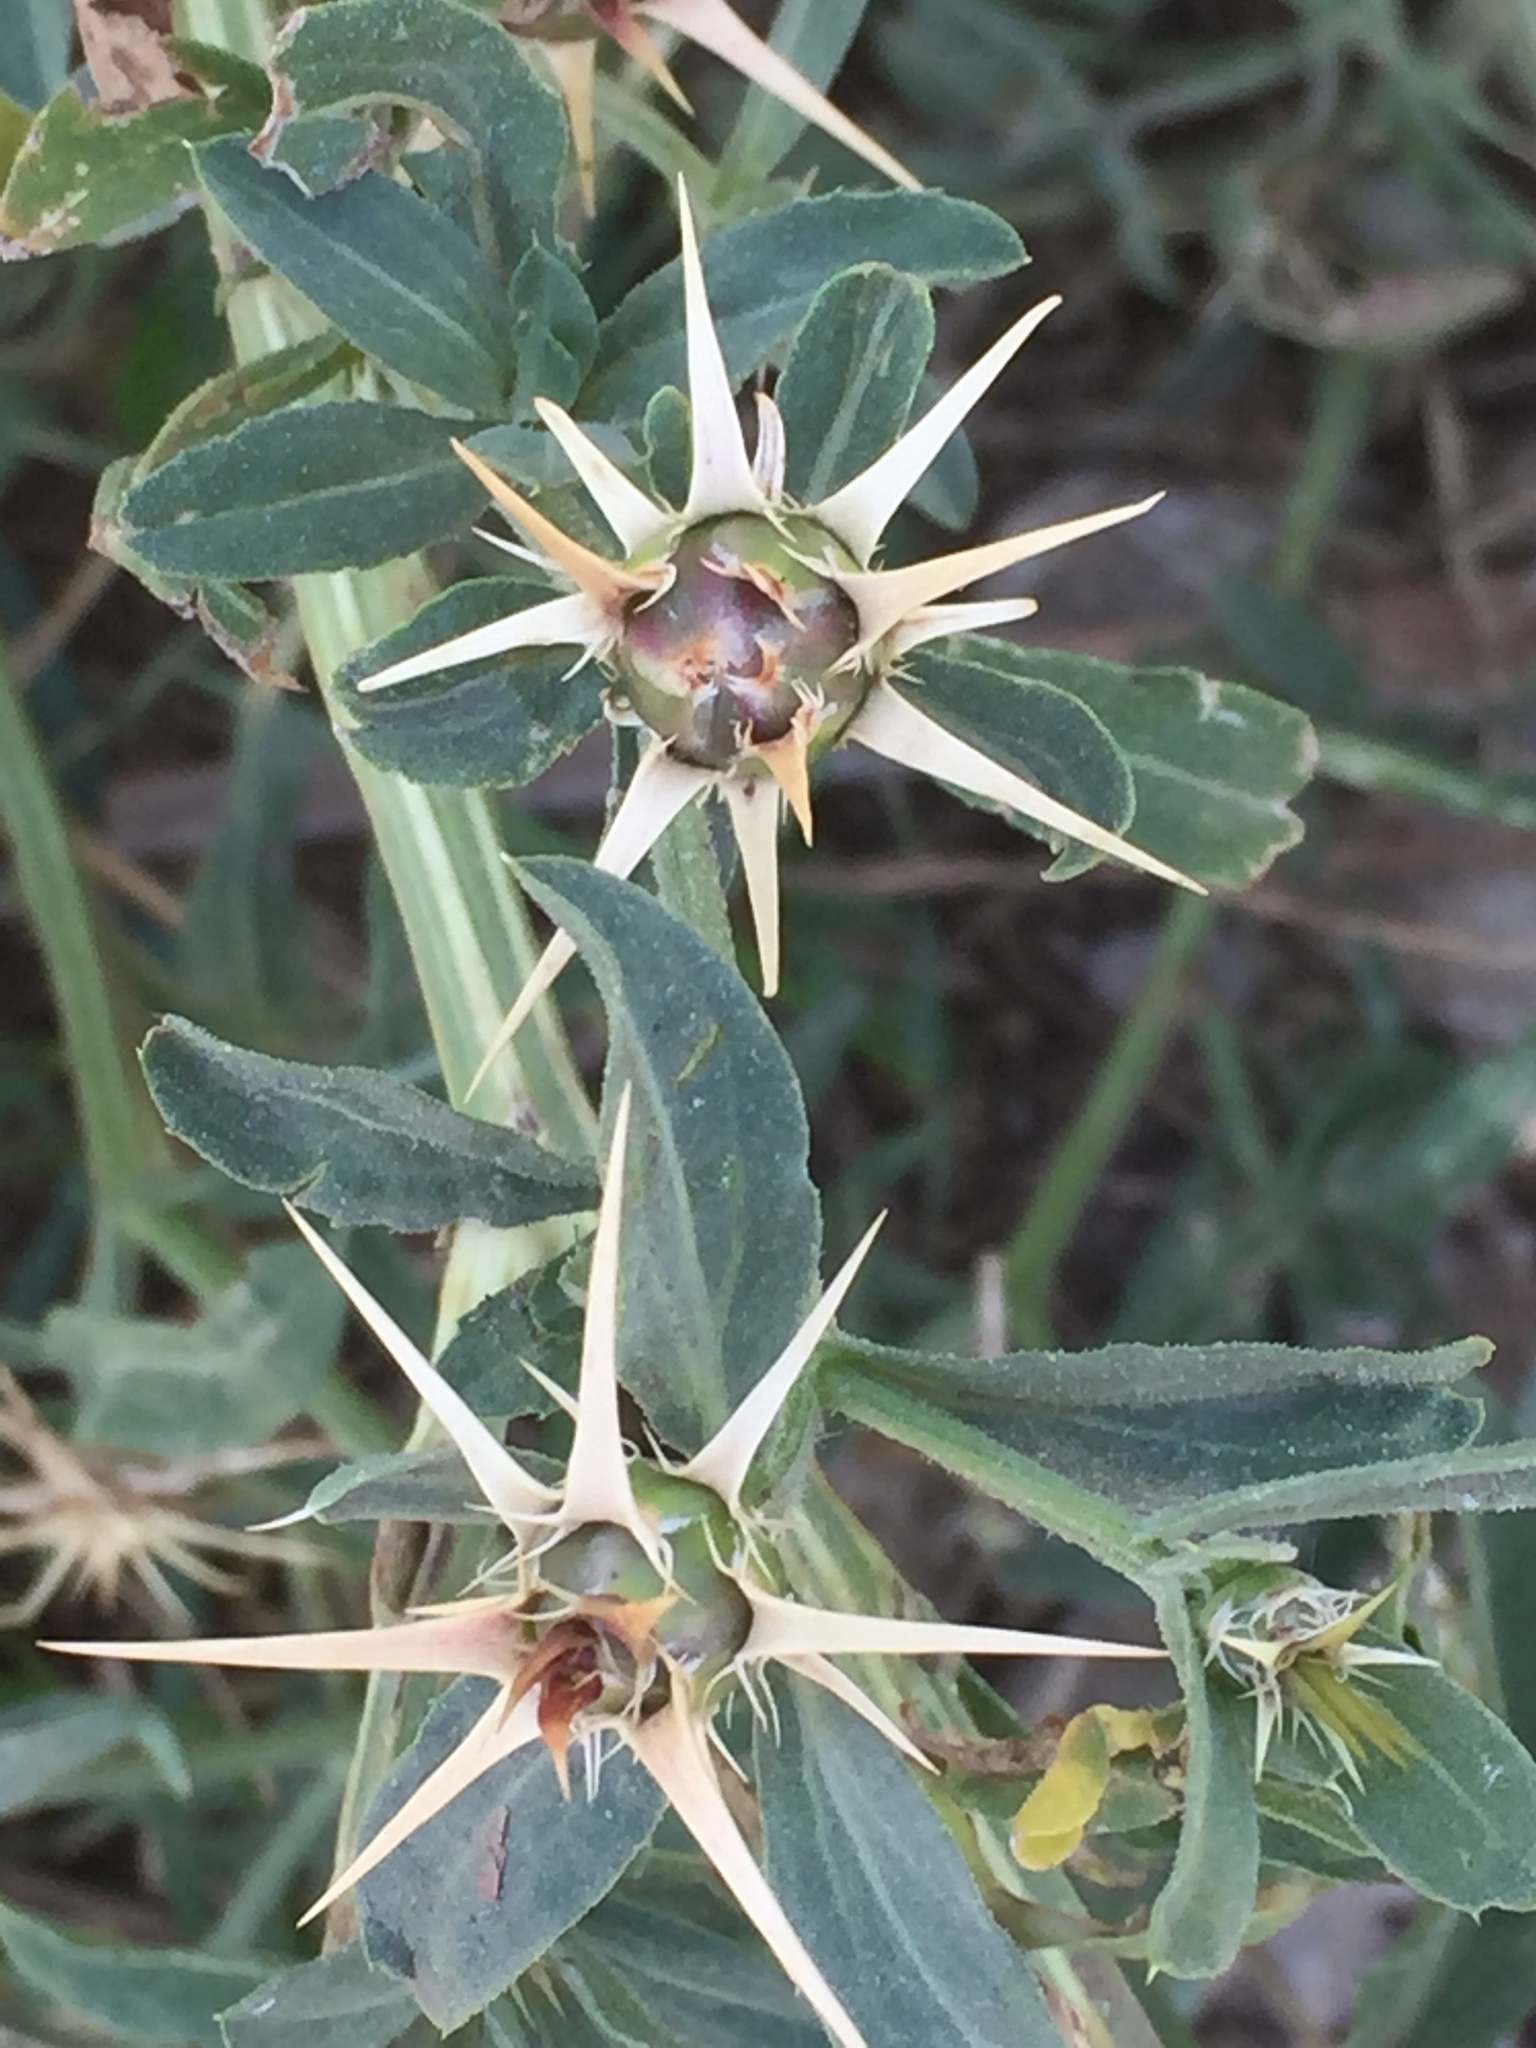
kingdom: Plantae
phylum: Tracheophyta
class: Magnoliopsida
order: Asterales
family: Asteraceae
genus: Centaurea
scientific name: Centaurea iberica
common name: Iberian knapweed
